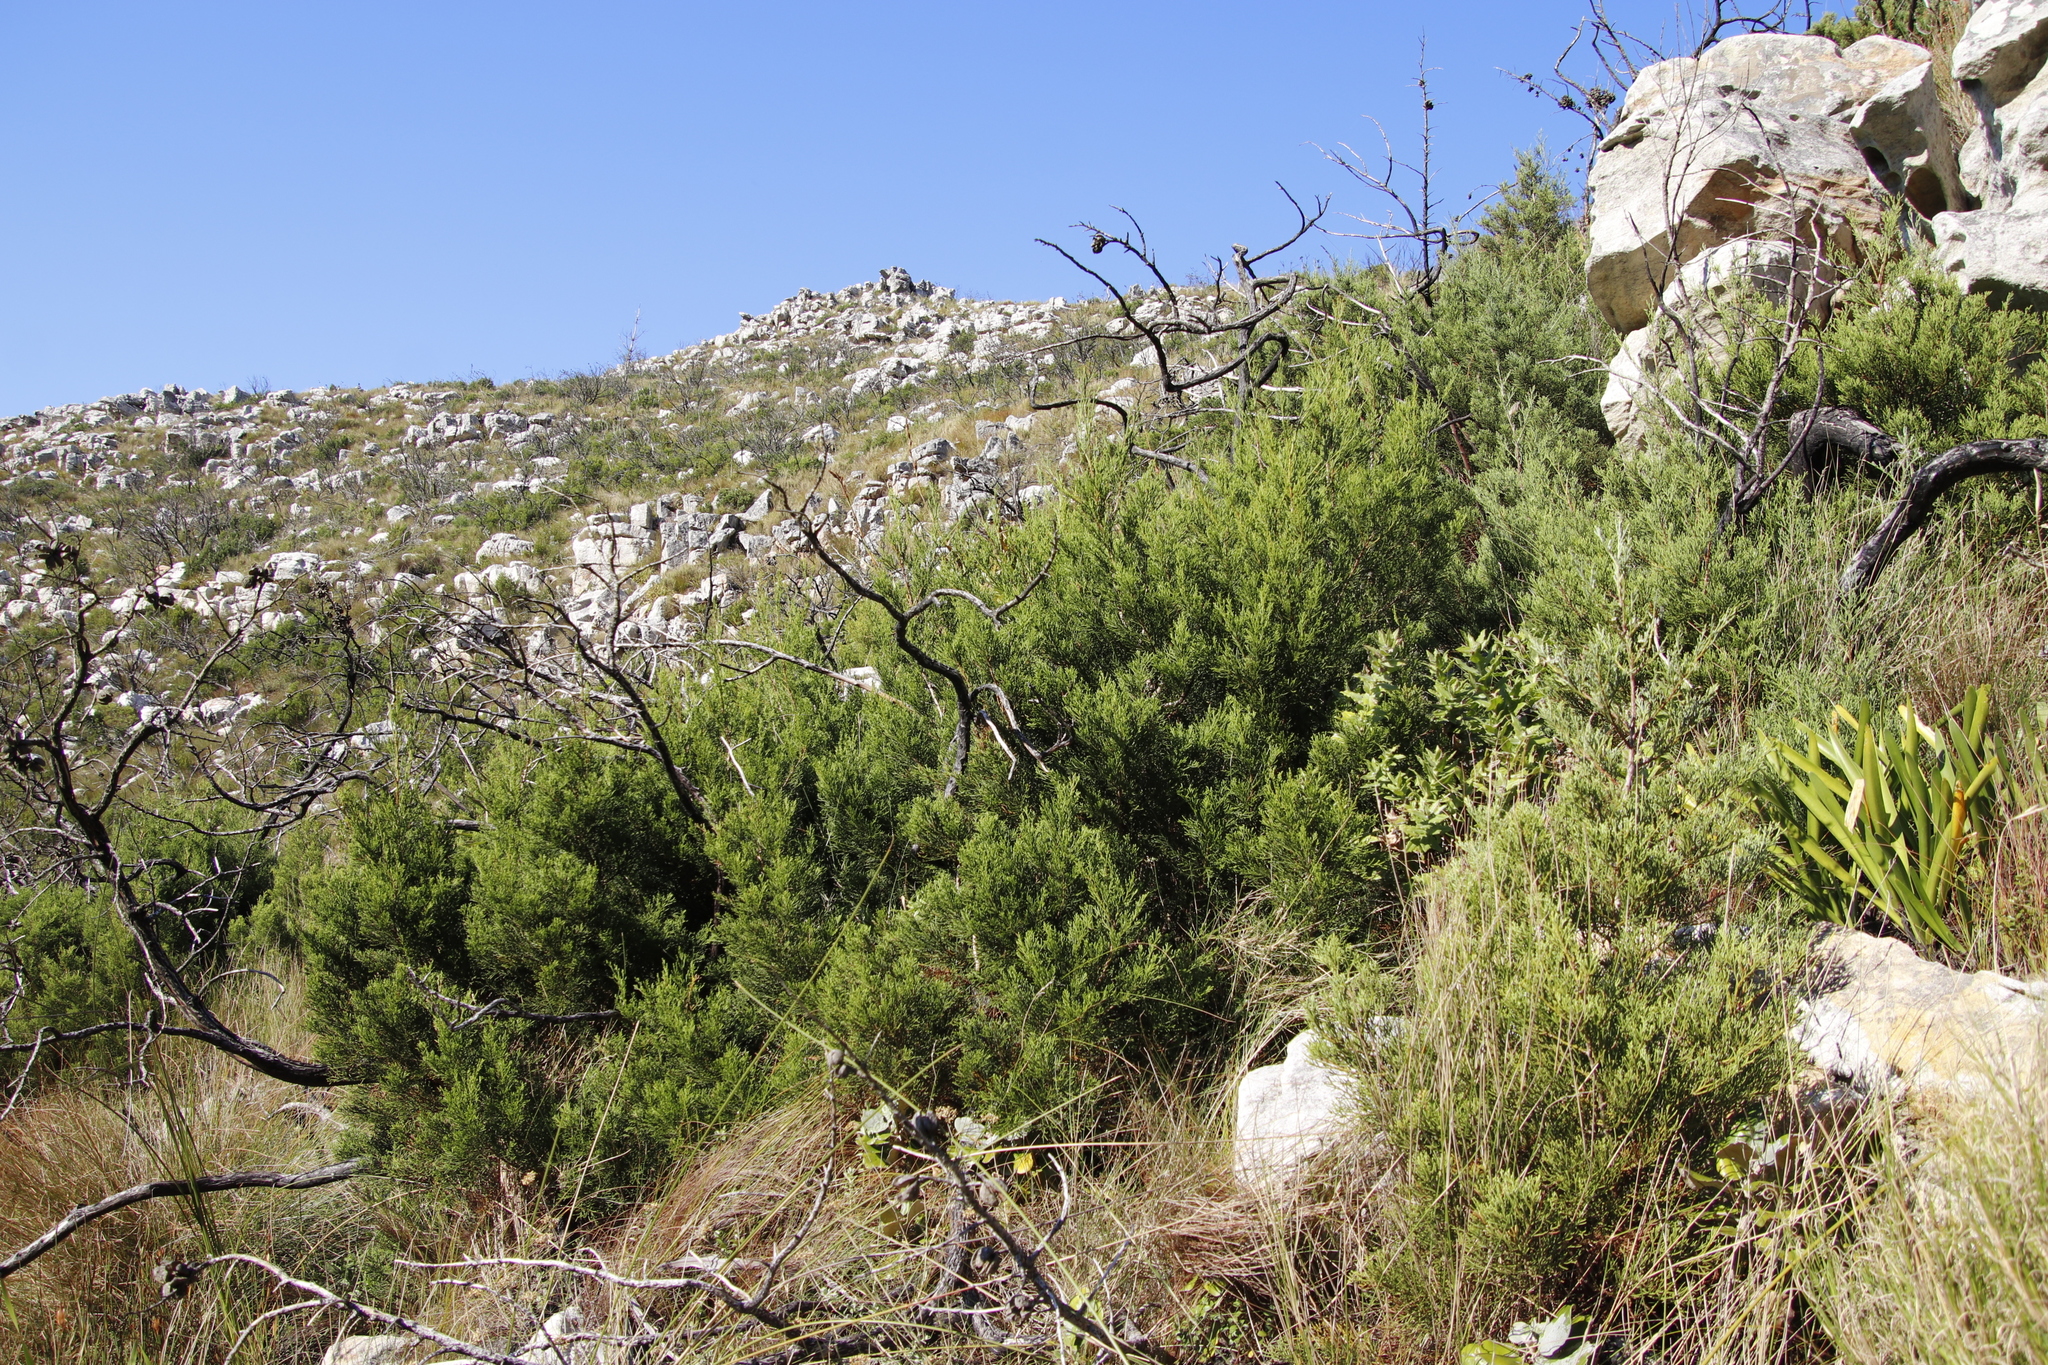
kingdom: Plantae
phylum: Tracheophyta
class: Pinopsida
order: Pinales
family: Cupressaceae
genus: Widdringtonia
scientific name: Widdringtonia nodiflora
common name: Cape cypress
